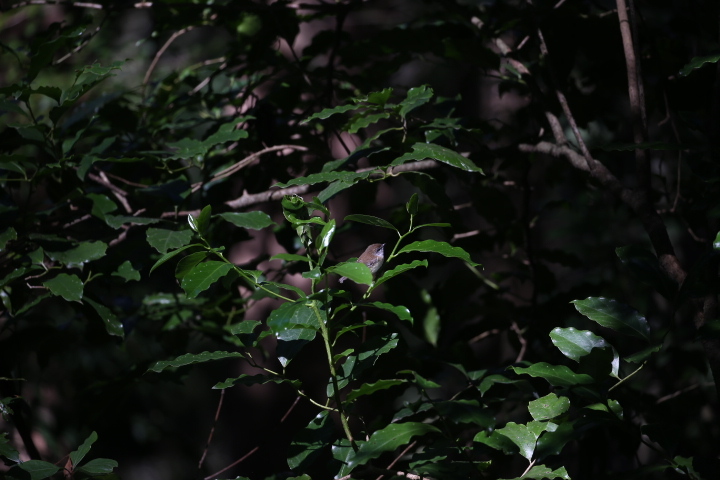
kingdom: Animalia
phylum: Chordata
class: Aves
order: Passeriformes
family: Acanthizidae
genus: Gerygone
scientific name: Gerygone mouki
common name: Brown gerygone
